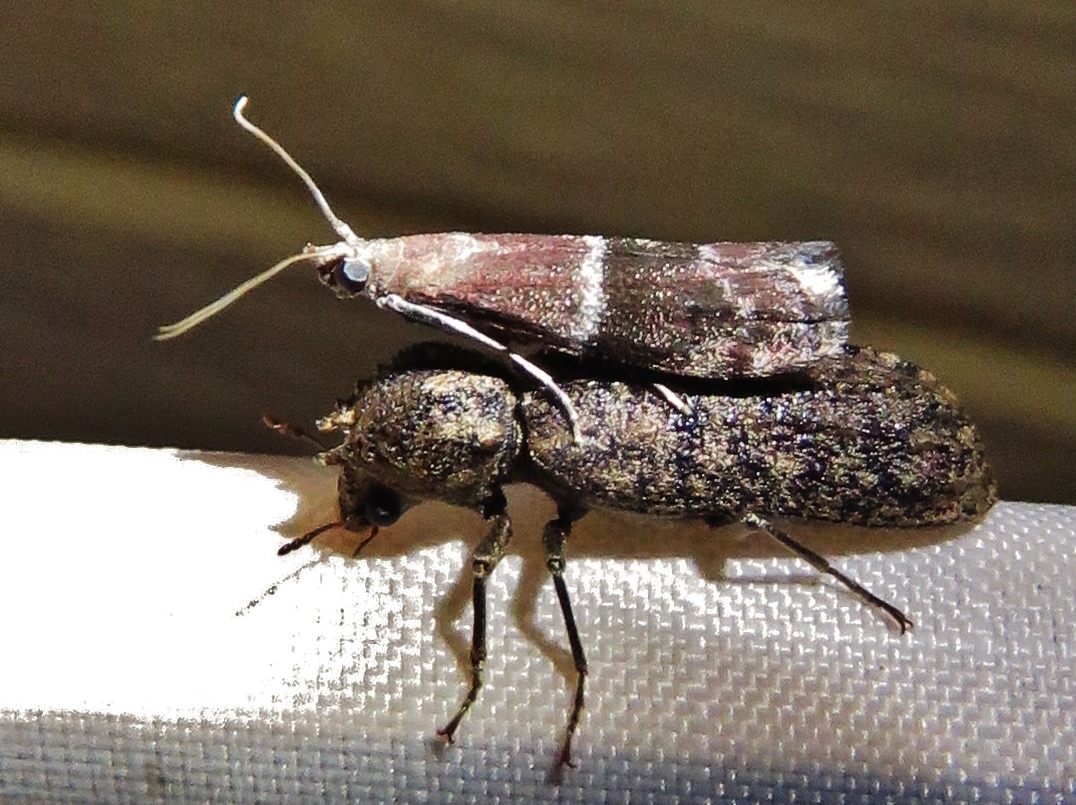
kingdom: Animalia
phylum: Arthropoda
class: Insecta
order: Lepidoptera
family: Pyralidae
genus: Moodna
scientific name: Moodna ostrinella
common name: Darker moodna moth
